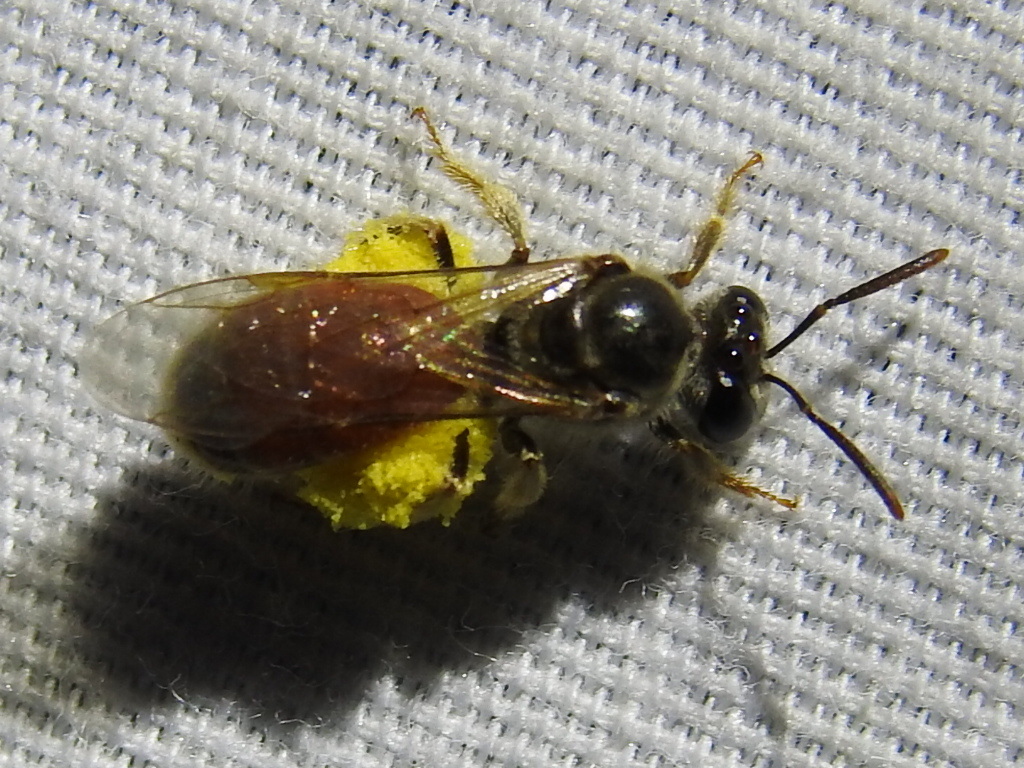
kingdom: Animalia
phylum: Arthropoda
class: Insecta
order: Hymenoptera
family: Halictidae
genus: Lasioglossum
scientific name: Lasioglossum texanum
